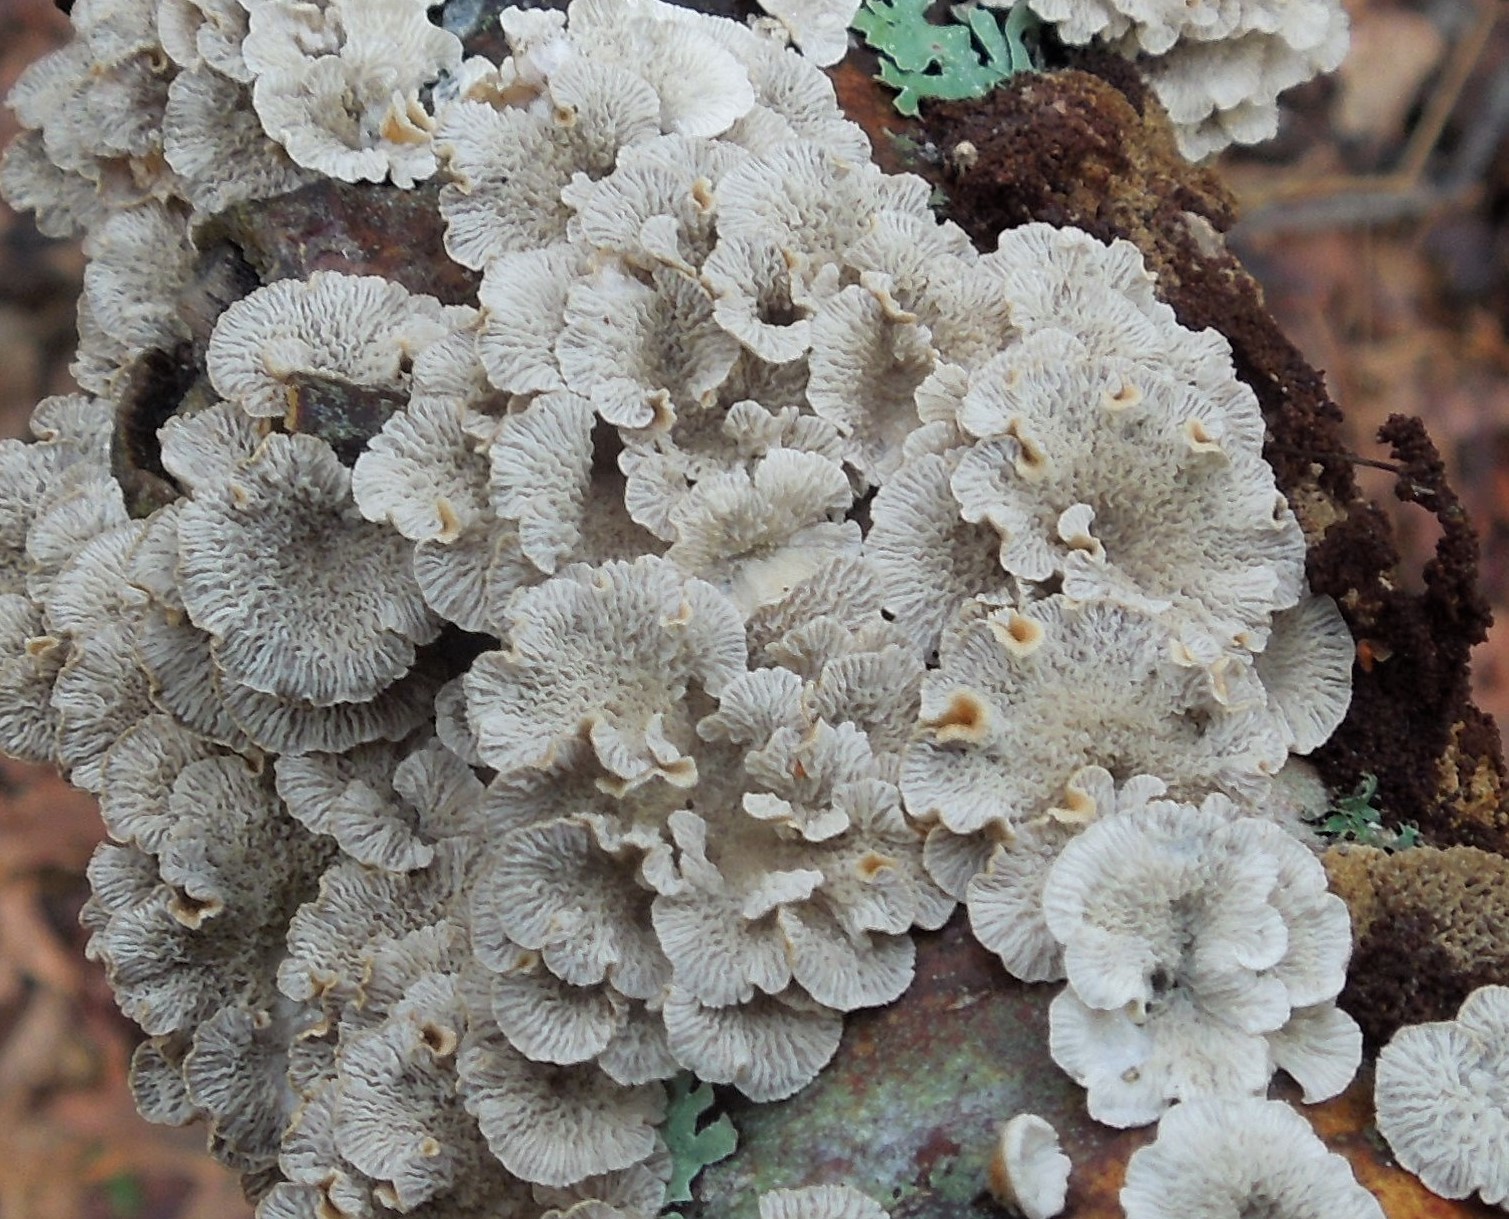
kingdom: Fungi
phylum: Basidiomycota
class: Agaricomycetes
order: Amylocorticiales
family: Amylocorticiaceae
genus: Plicaturopsis
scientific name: Plicaturopsis crispa
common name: Crimped gill
